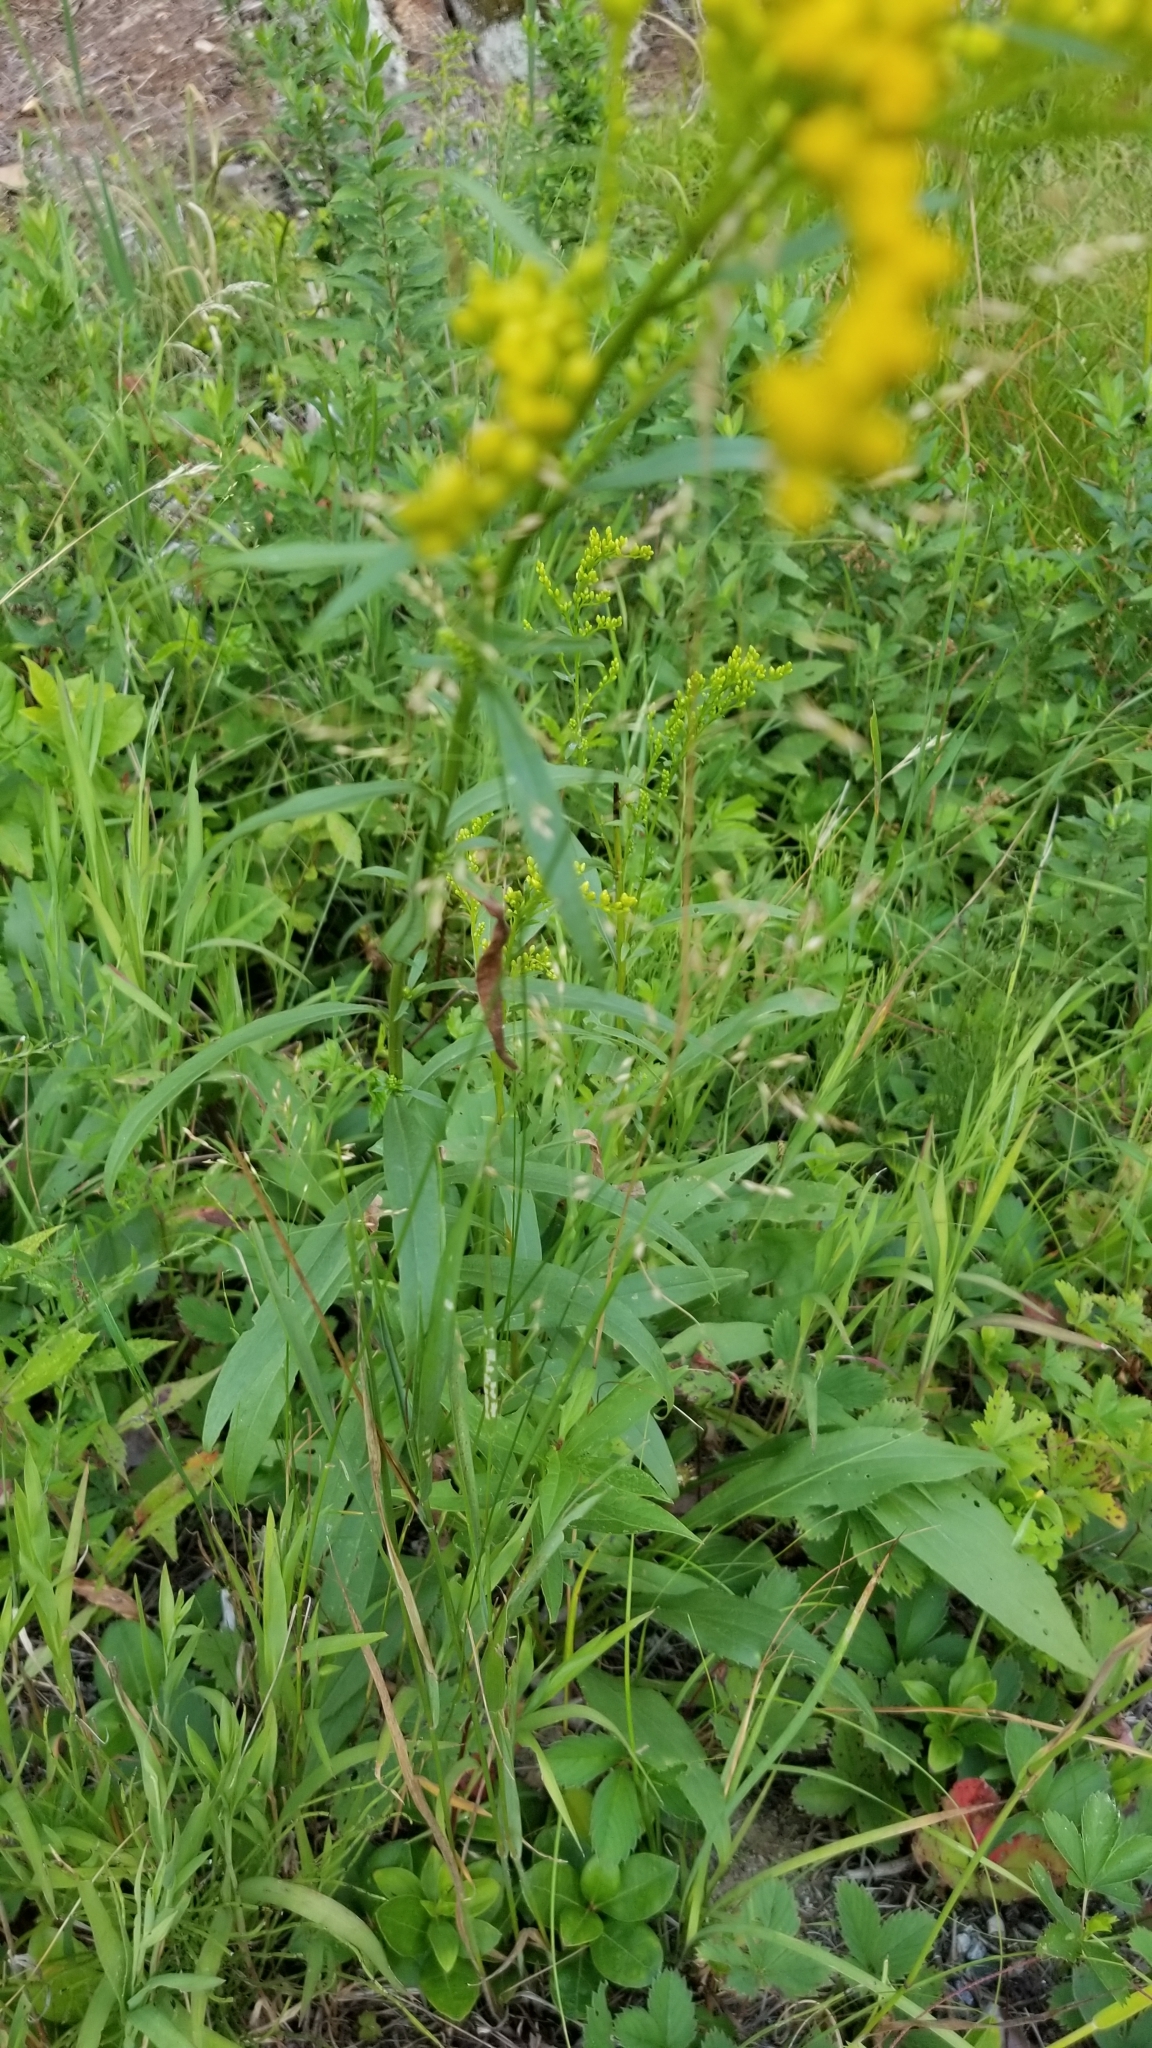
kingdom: Plantae
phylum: Tracheophyta
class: Magnoliopsida
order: Asterales
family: Asteraceae
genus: Solidago
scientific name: Solidago juncea
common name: Early goldenrod
